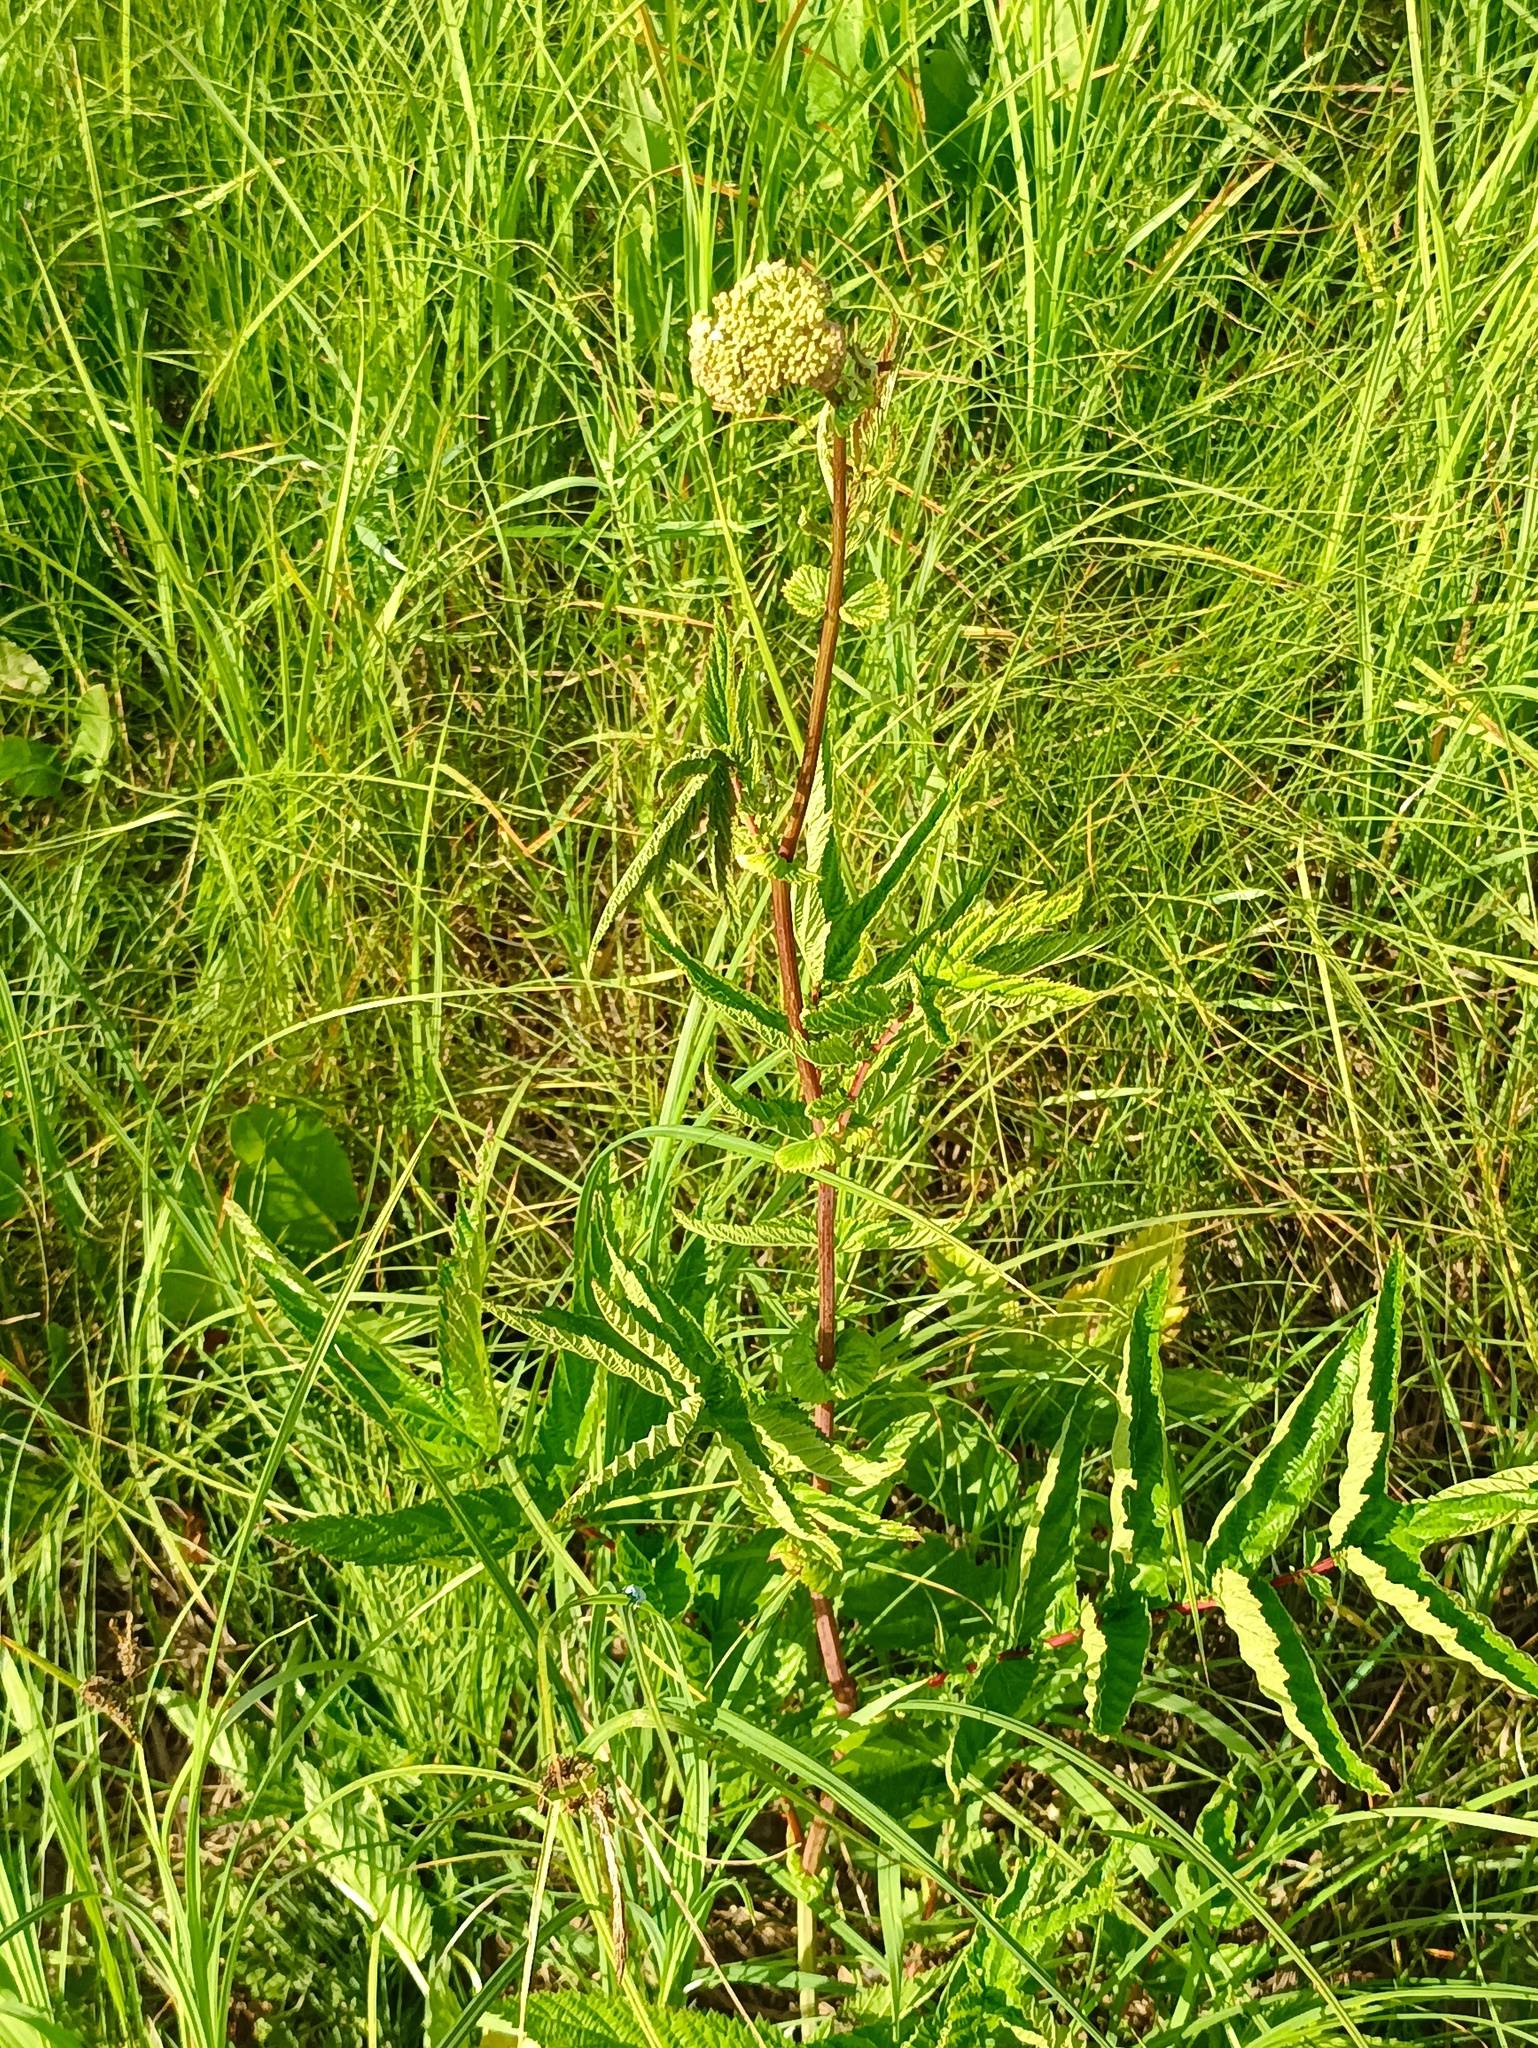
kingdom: Plantae
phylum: Tracheophyta
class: Magnoliopsida
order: Rosales
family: Rosaceae
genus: Filipendula
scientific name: Filipendula ulmaria
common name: Meadowsweet
